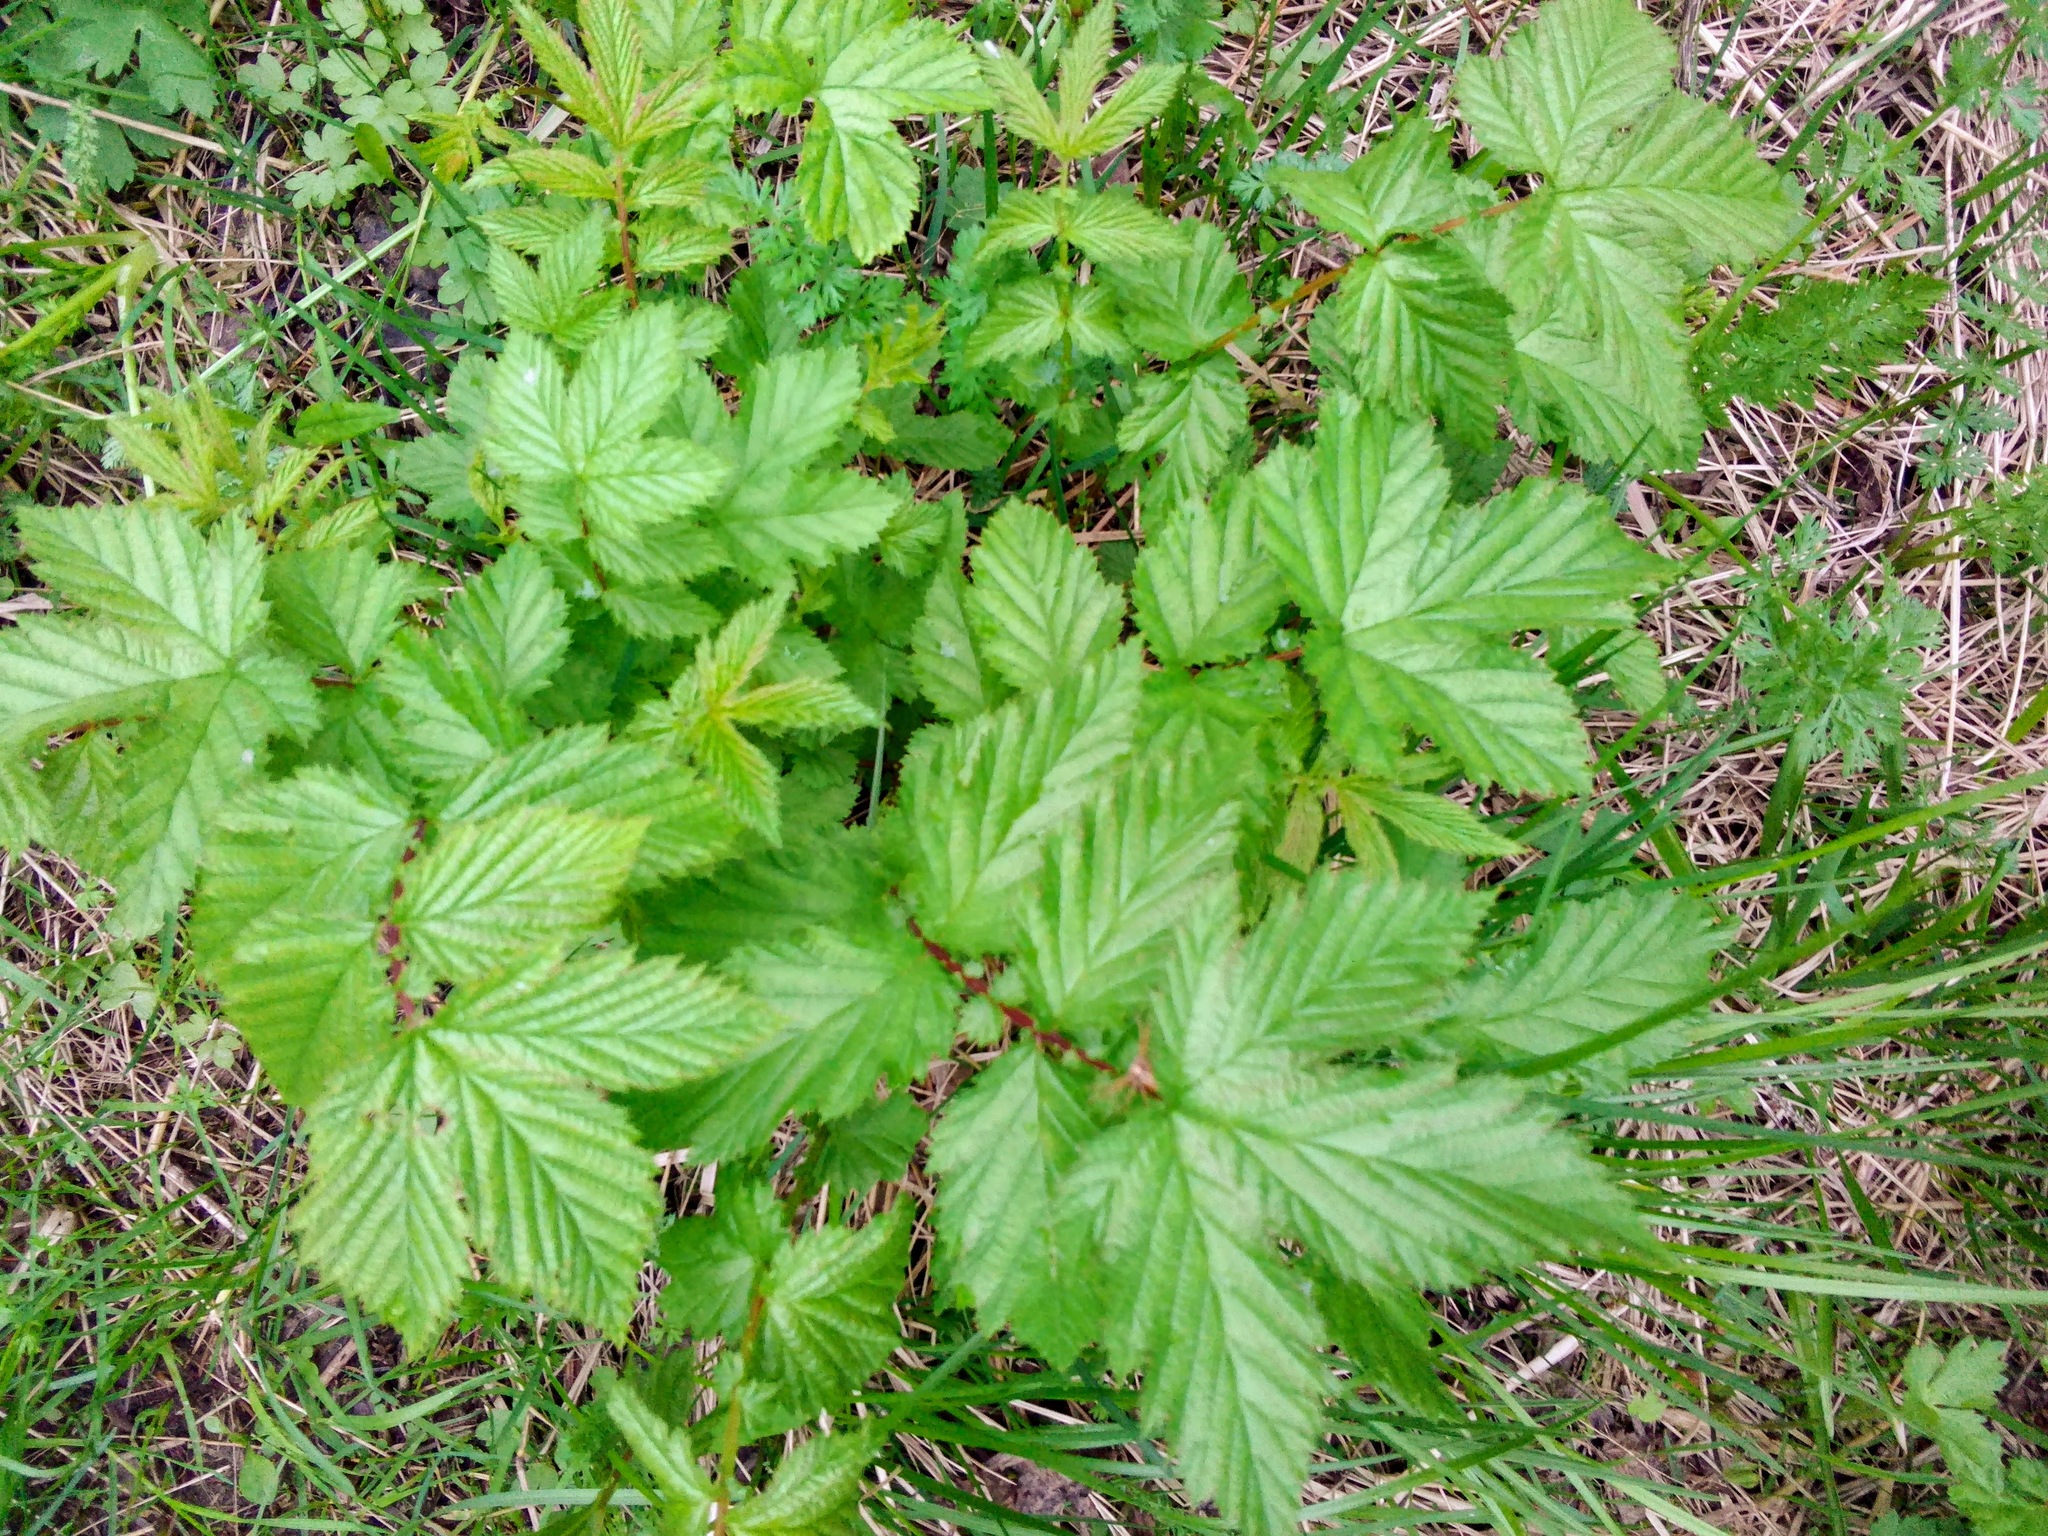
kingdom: Plantae
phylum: Tracheophyta
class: Magnoliopsida
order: Rosales
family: Rosaceae
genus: Filipendula
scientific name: Filipendula ulmaria
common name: Meadowsweet
